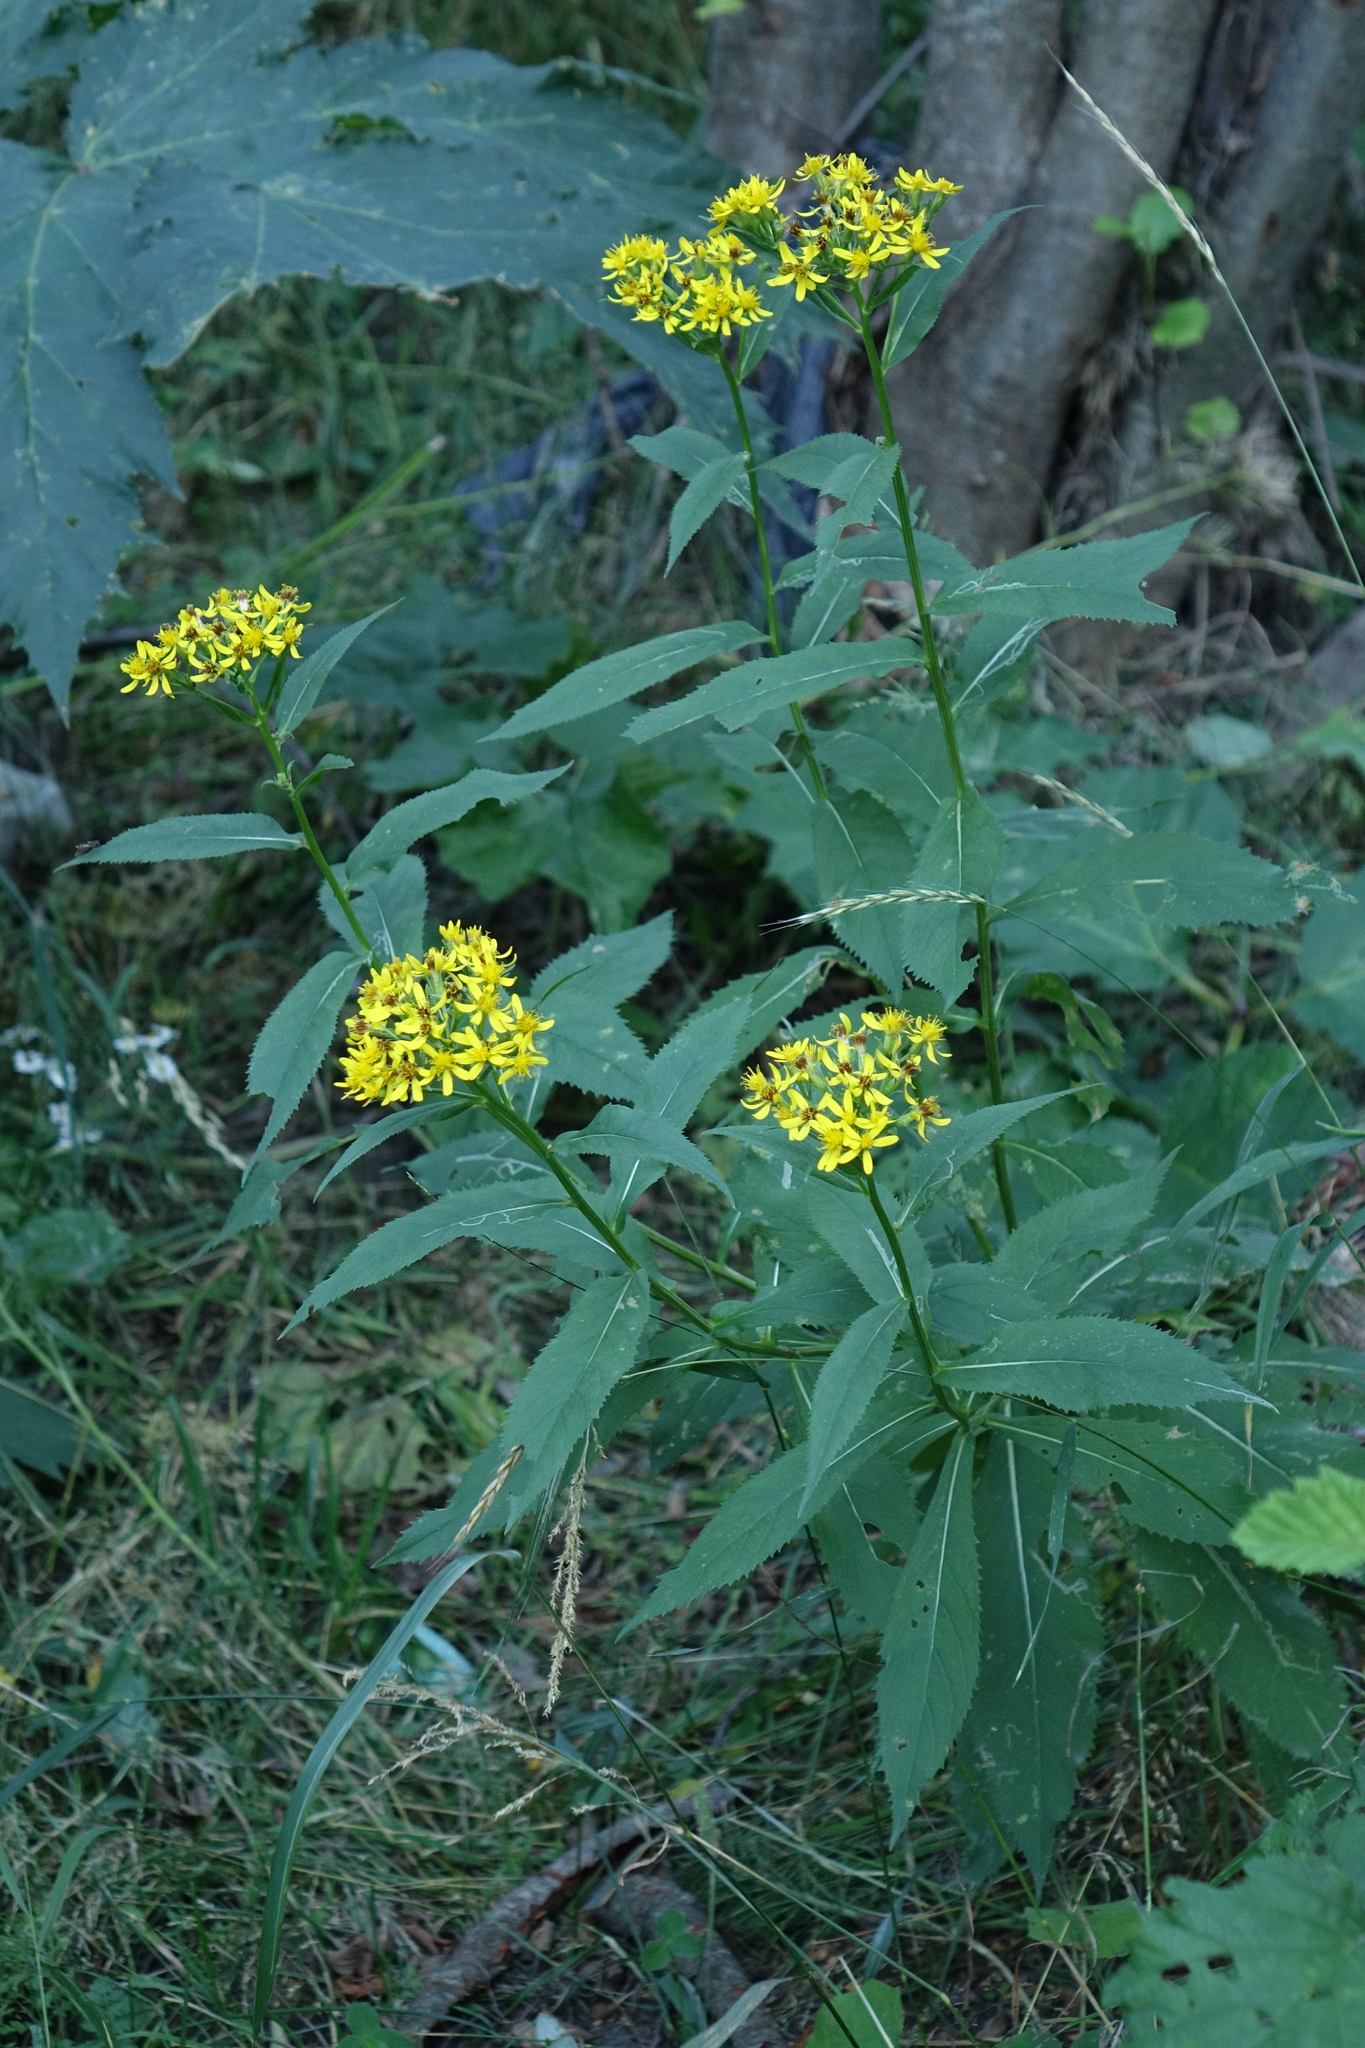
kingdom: Plantae
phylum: Tracheophyta
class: Magnoliopsida
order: Asterales
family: Asteraceae
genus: Senecio
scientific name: Senecio propinquus
